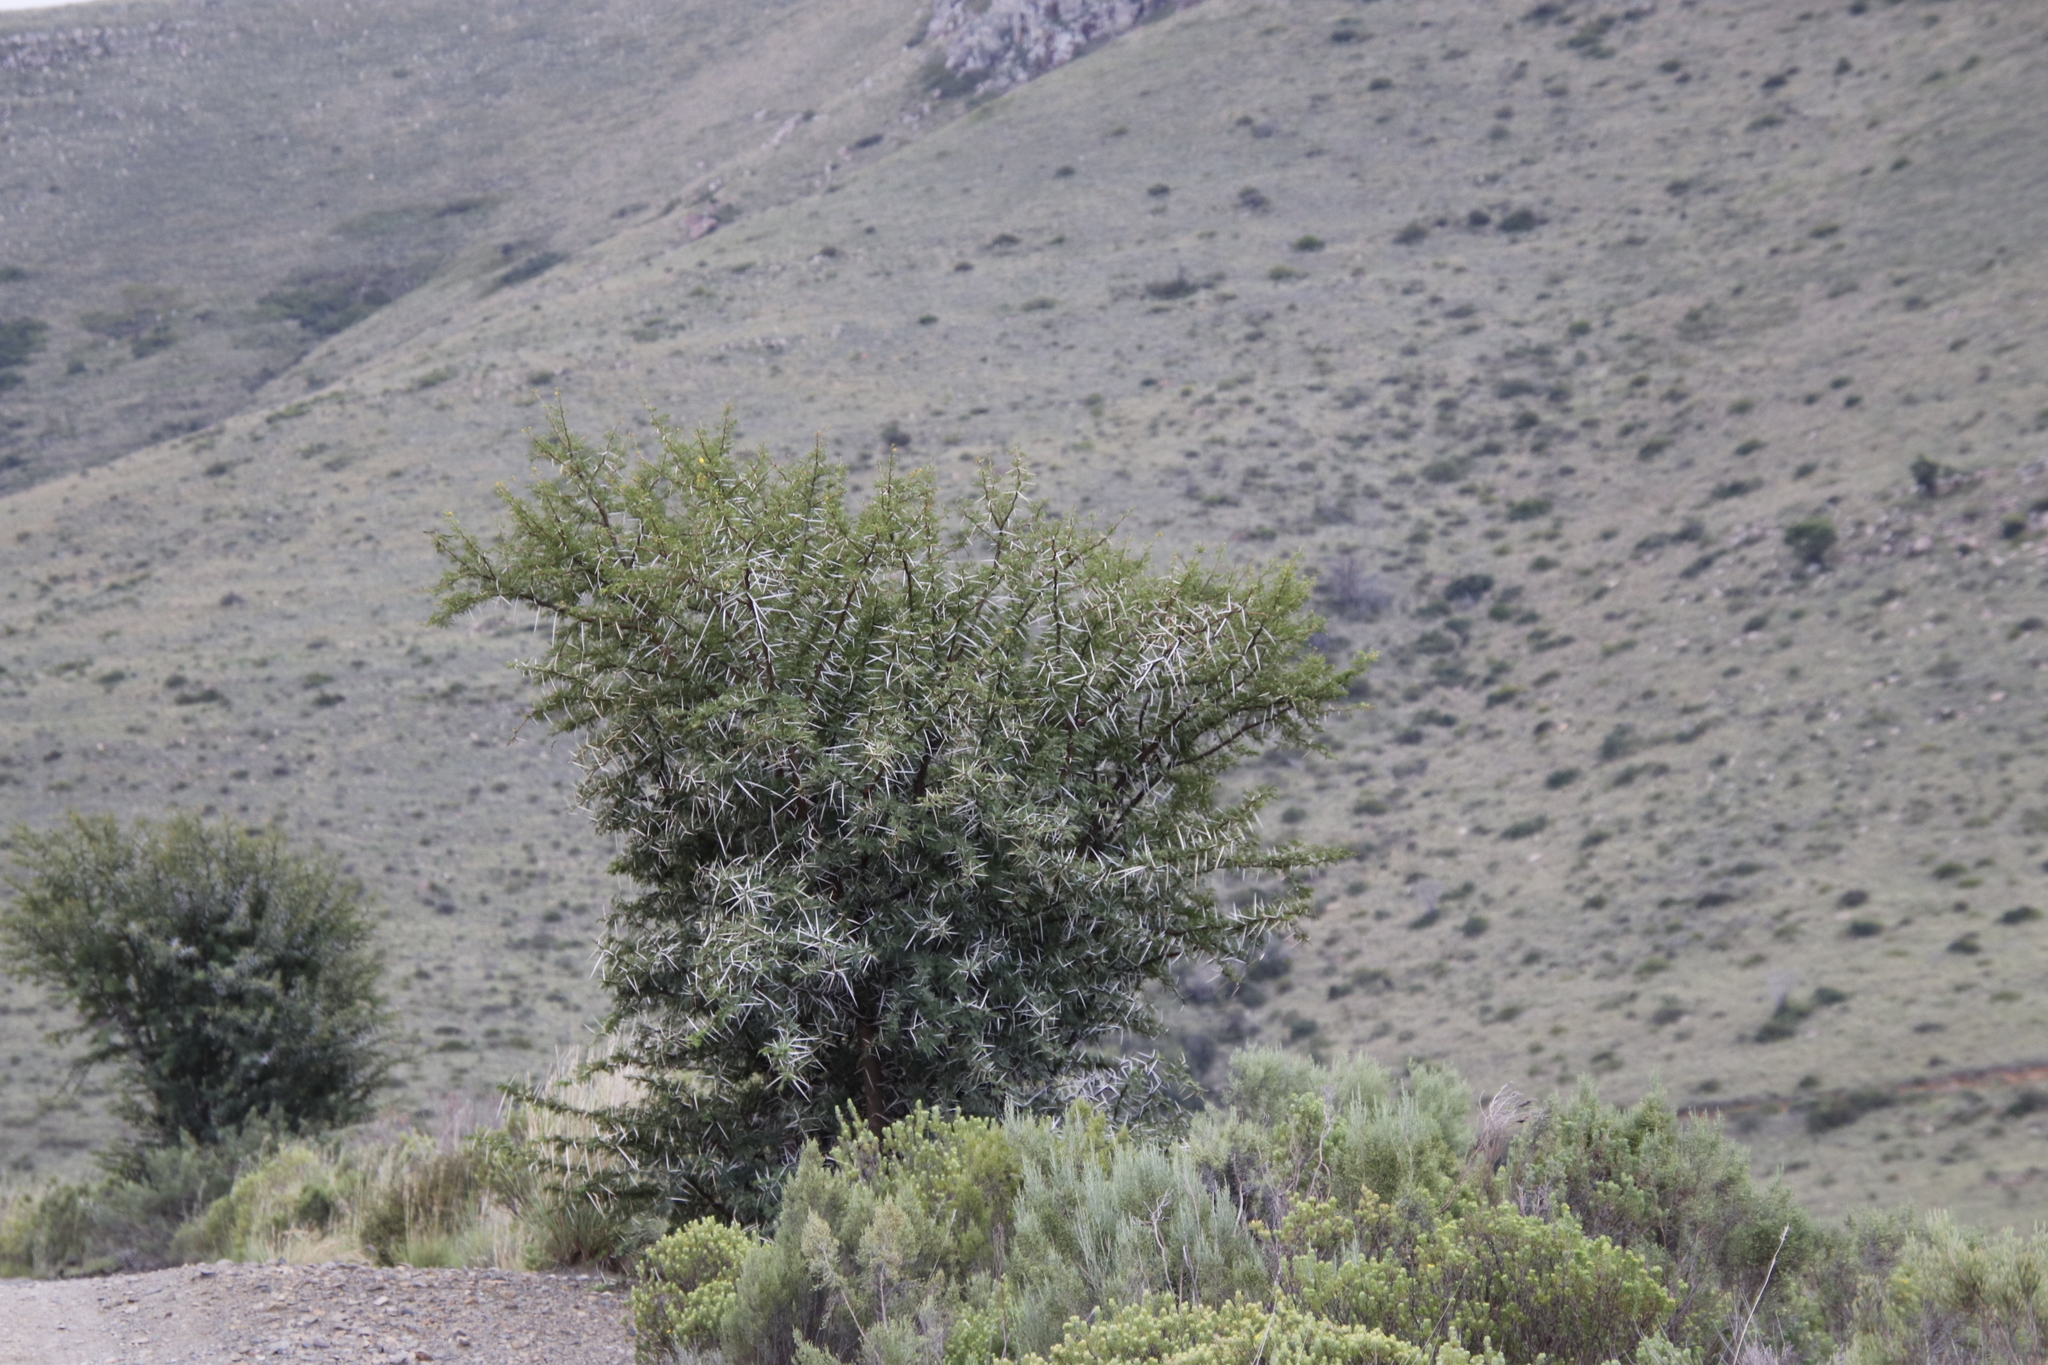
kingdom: Plantae
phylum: Tracheophyta
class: Magnoliopsida
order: Fabales
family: Fabaceae
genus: Vachellia
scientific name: Vachellia karroo
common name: Sweet thorn
